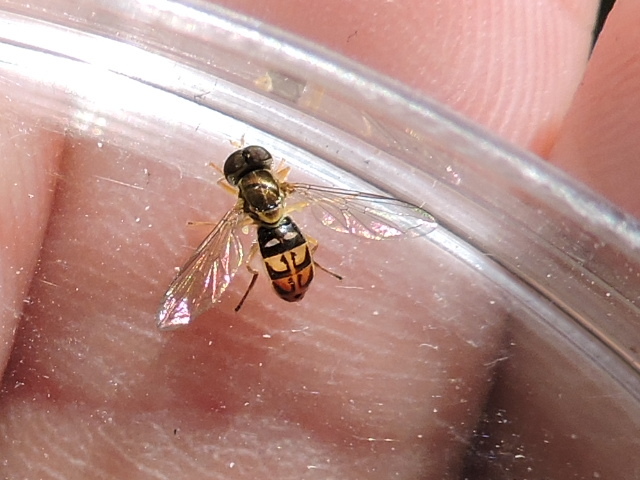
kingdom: Animalia
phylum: Arthropoda
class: Insecta
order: Diptera
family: Syrphidae
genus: Toxomerus
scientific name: Toxomerus marginatus
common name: Syrphid fly
